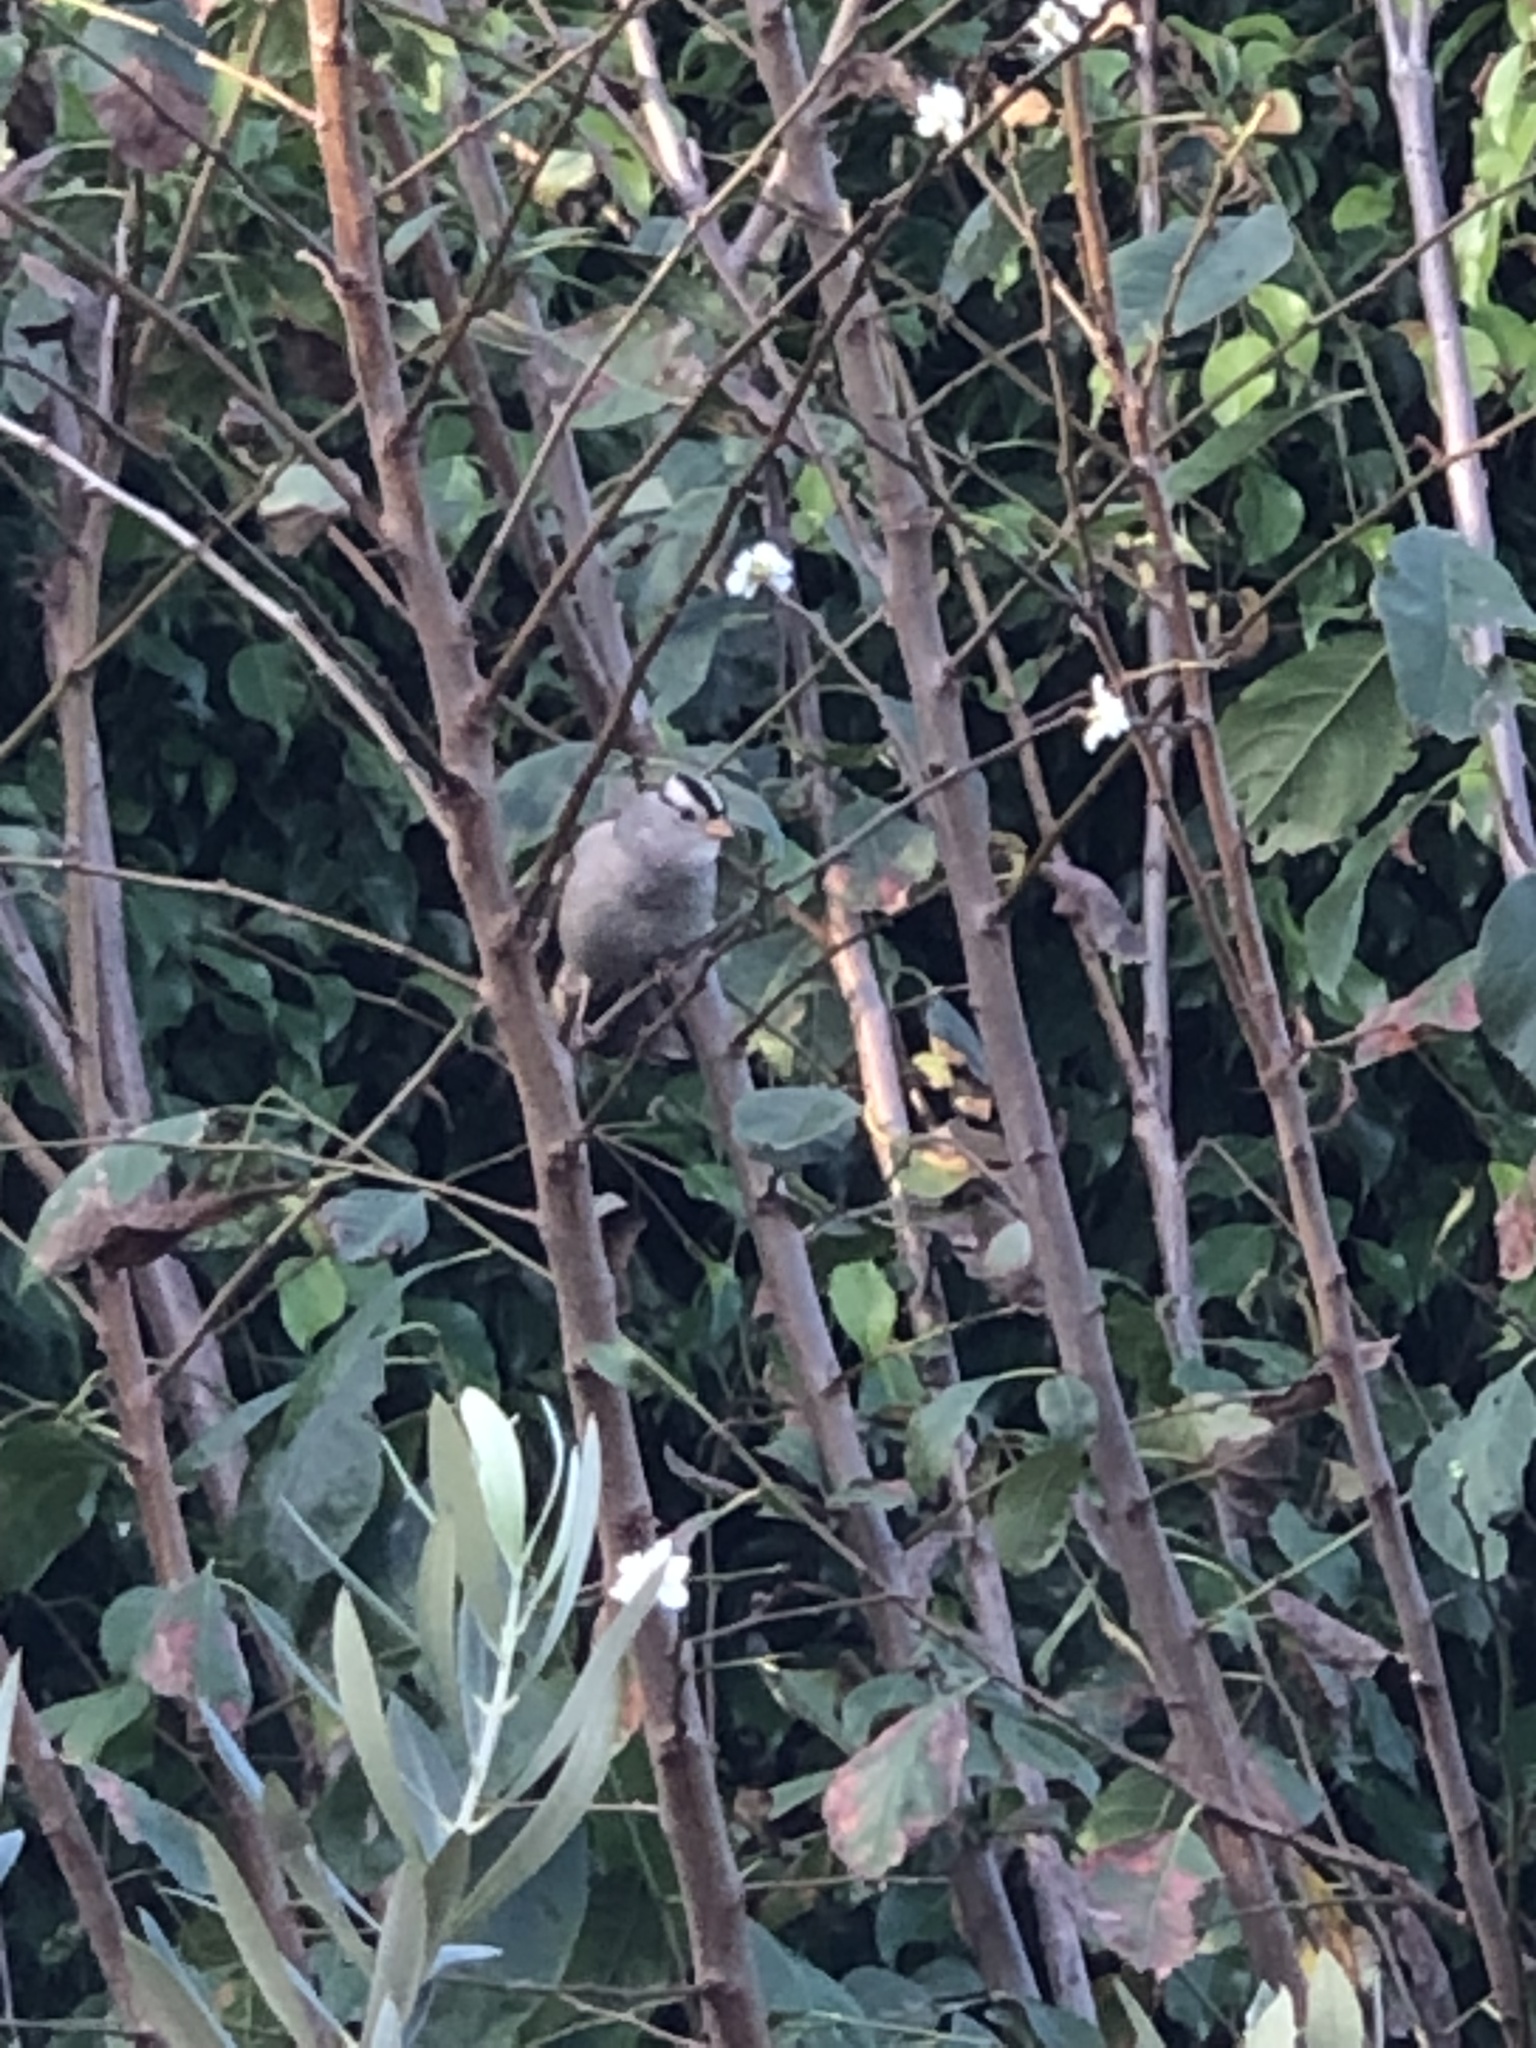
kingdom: Animalia
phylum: Chordata
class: Aves
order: Passeriformes
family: Passerellidae
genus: Zonotrichia
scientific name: Zonotrichia leucophrys
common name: White-crowned sparrow
